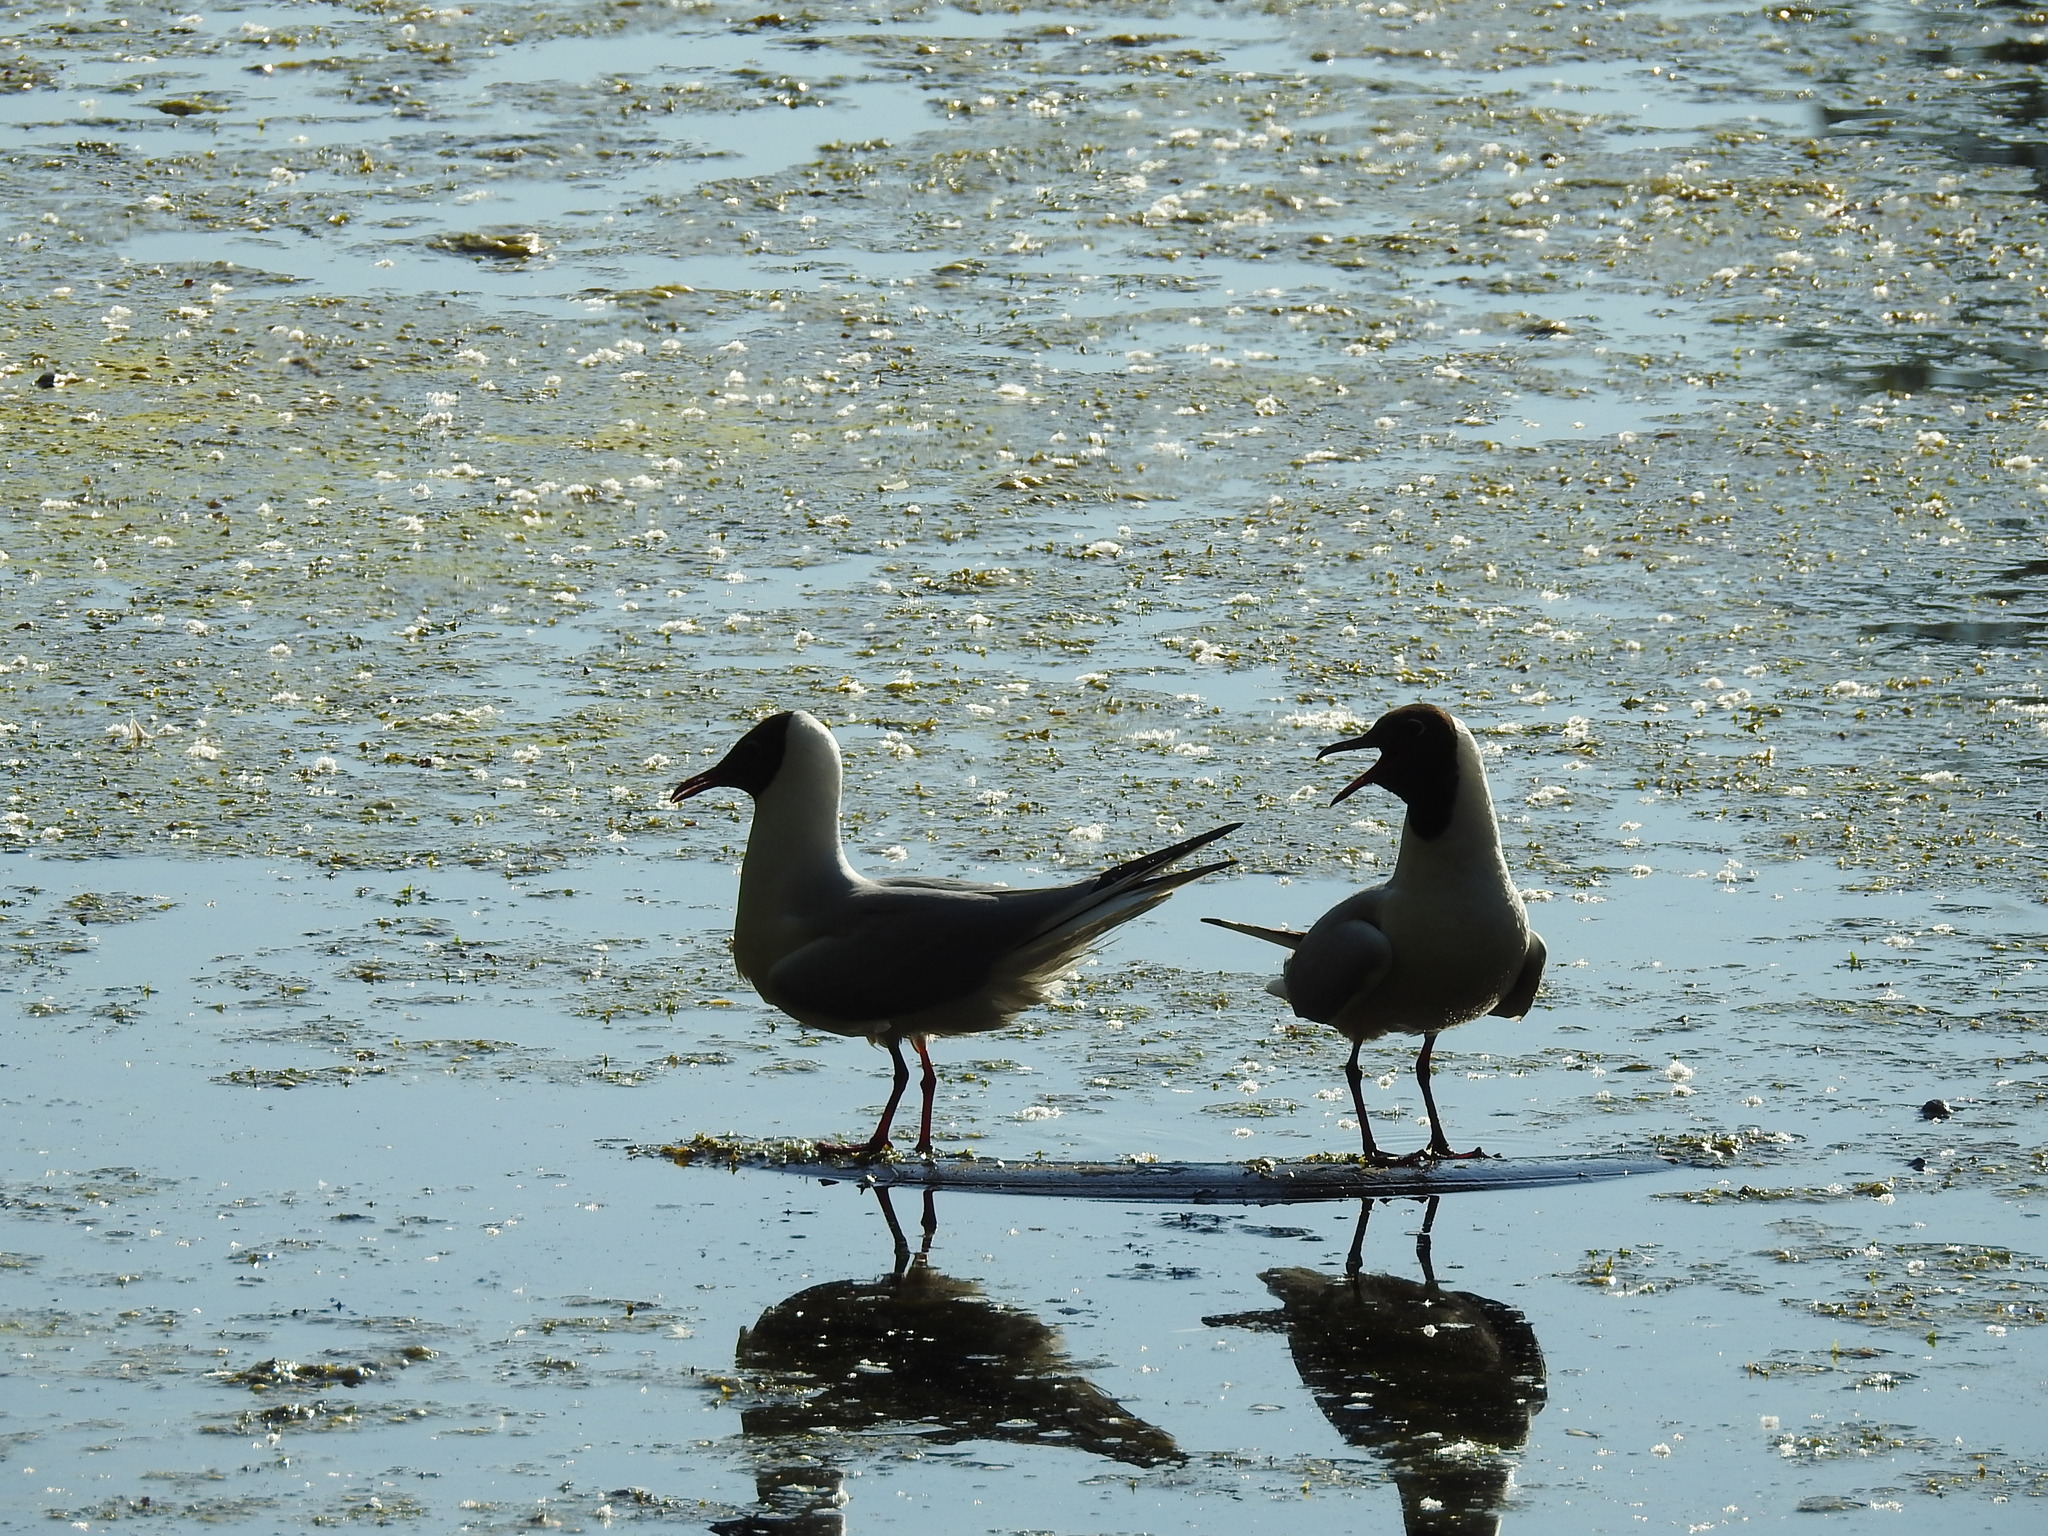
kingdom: Animalia
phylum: Chordata
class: Aves
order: Charadriiformes
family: Laridae
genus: Chroicocephalus
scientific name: Chroicocephalus ridibundus
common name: Black-headed gull
